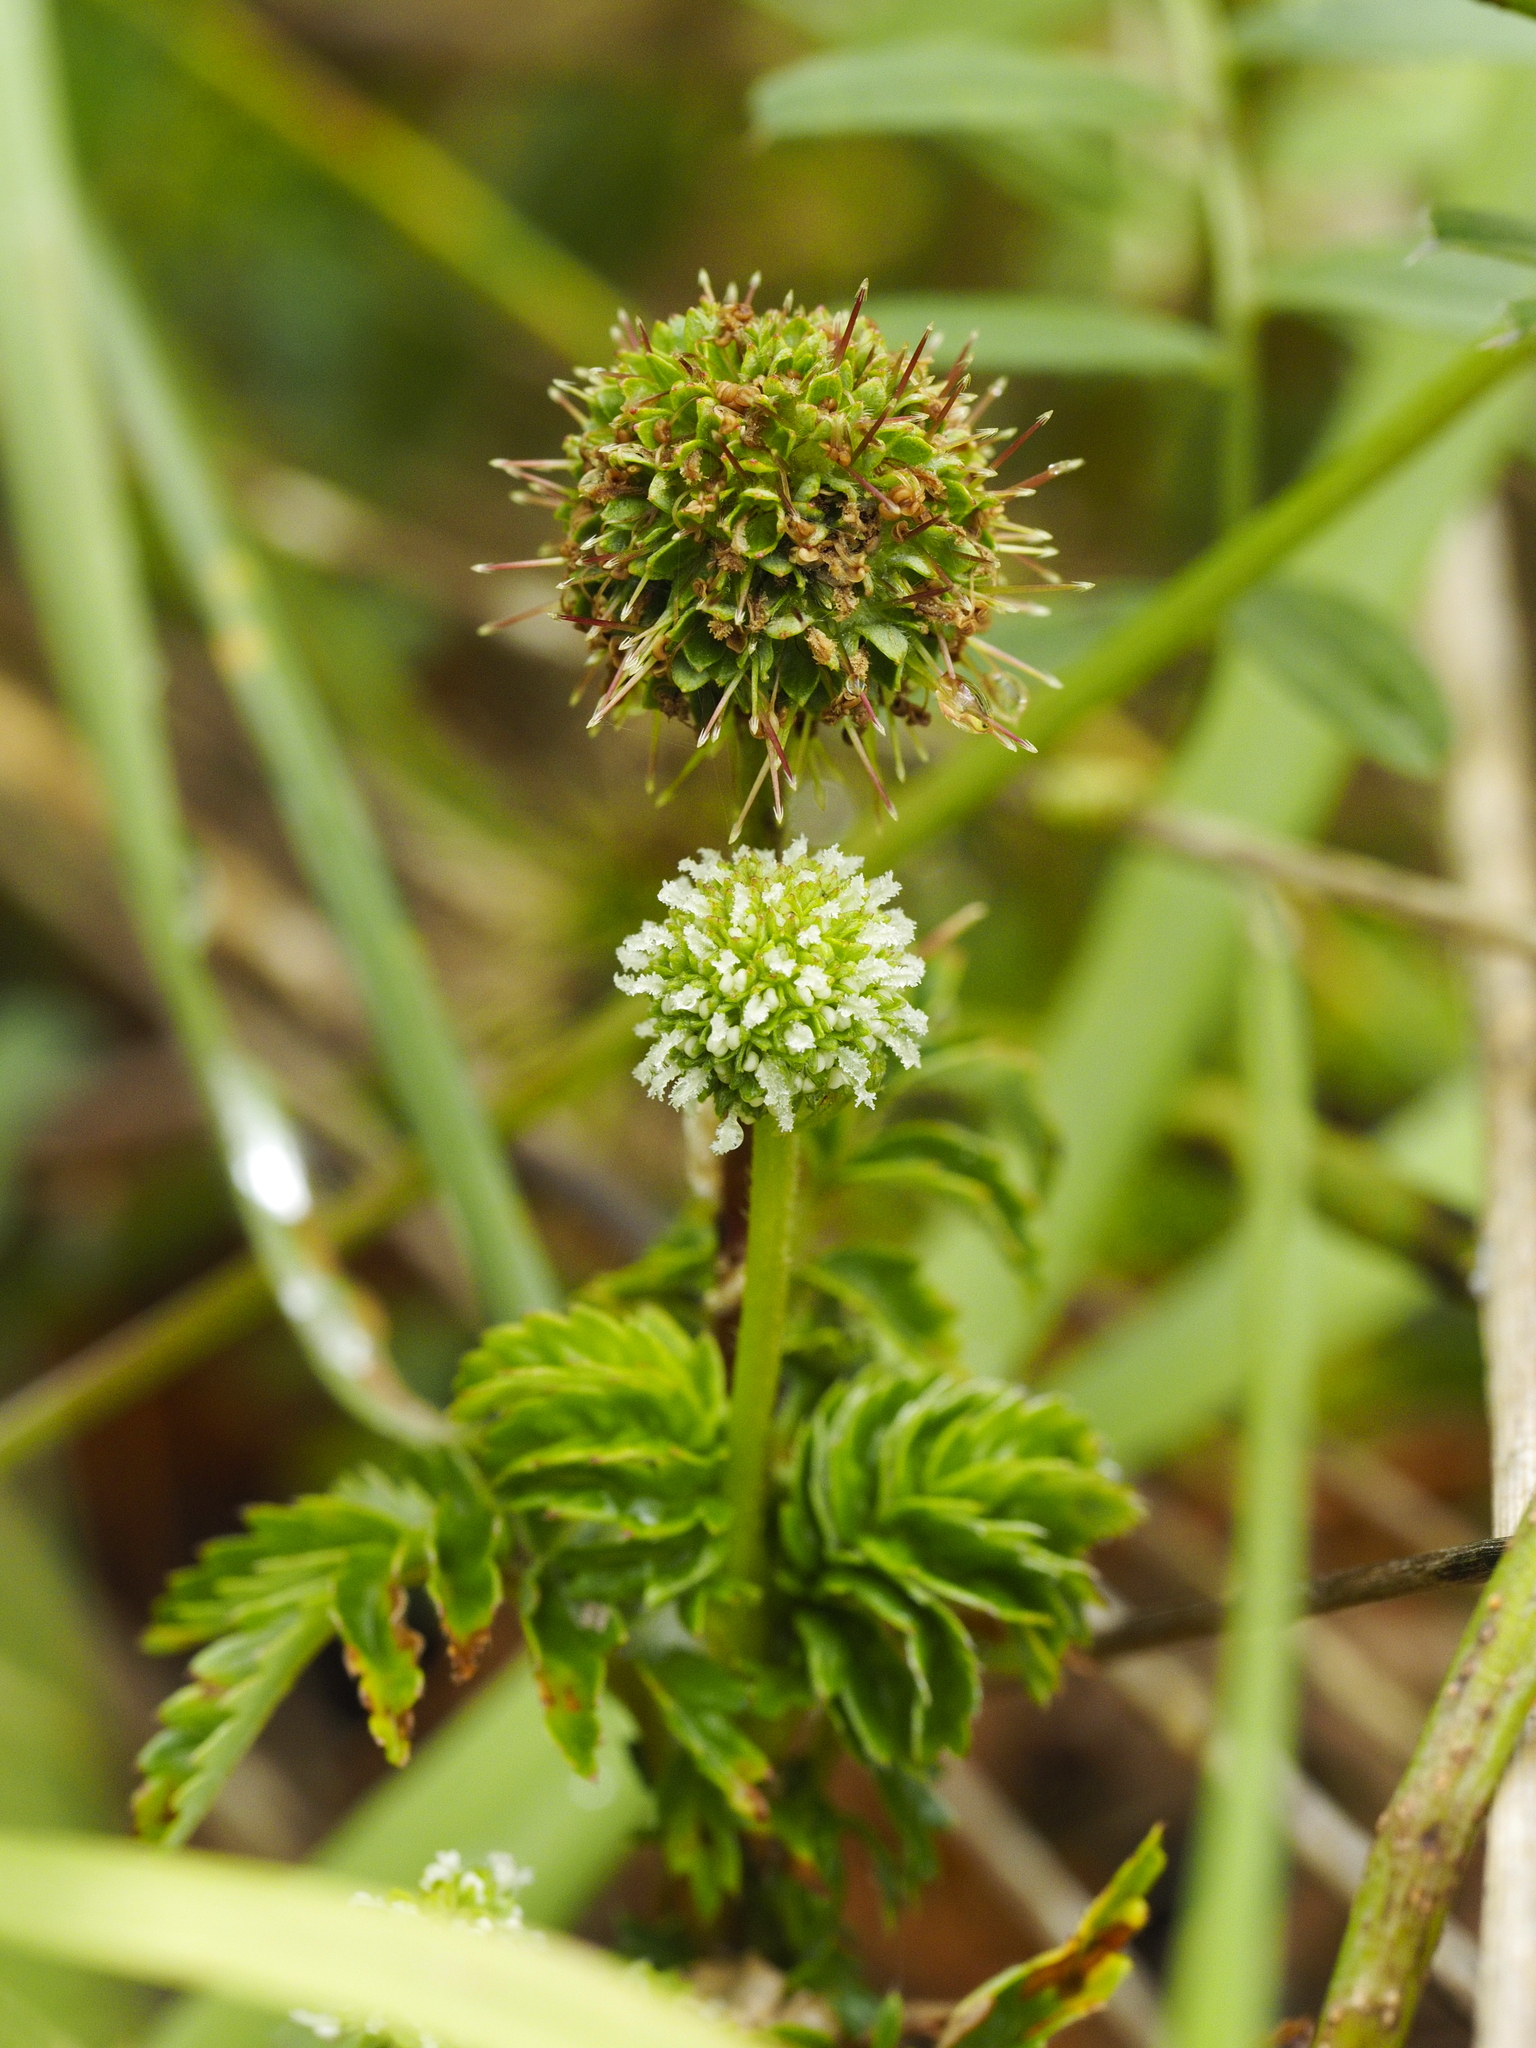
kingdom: Plantae
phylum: Tracheophyta
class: Magnoliopsida
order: Rosales
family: Rosaceae
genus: Acaena
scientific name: Acaena novae-zelandiae
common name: Pirri-pirri-bur
